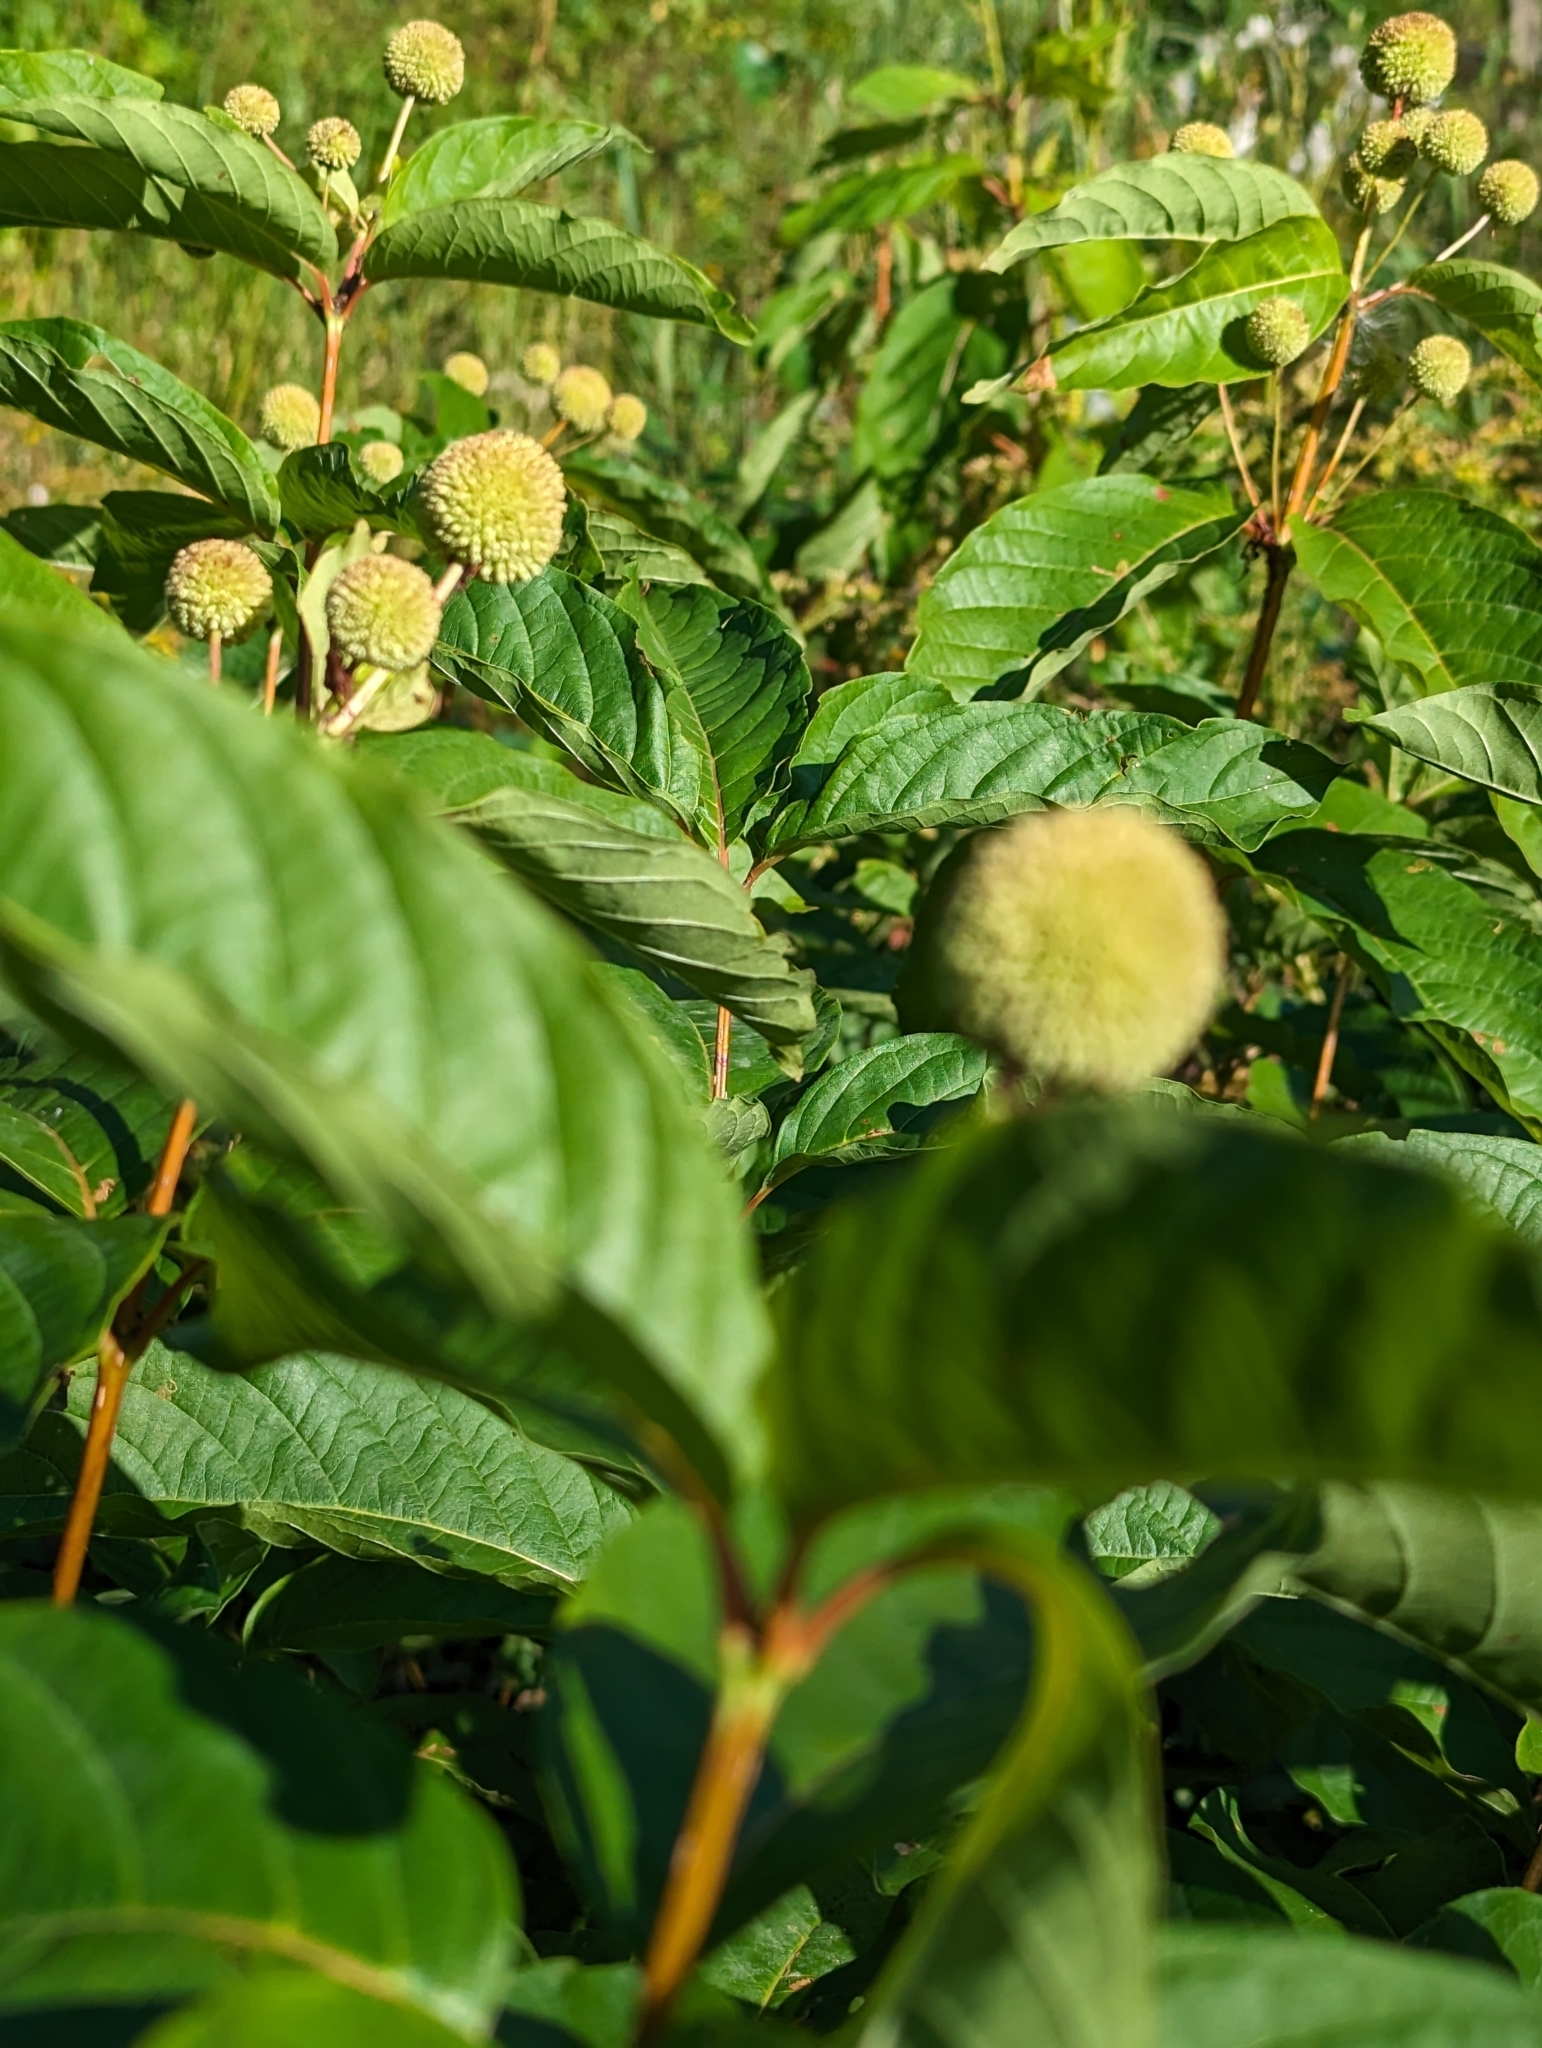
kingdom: Plantae
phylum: Tracheophyta
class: Magnoliopsida
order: Gentianales
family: Rubiaceae
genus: Cephalanthus
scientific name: Cephalanthus occidentalis
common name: Button-willow
